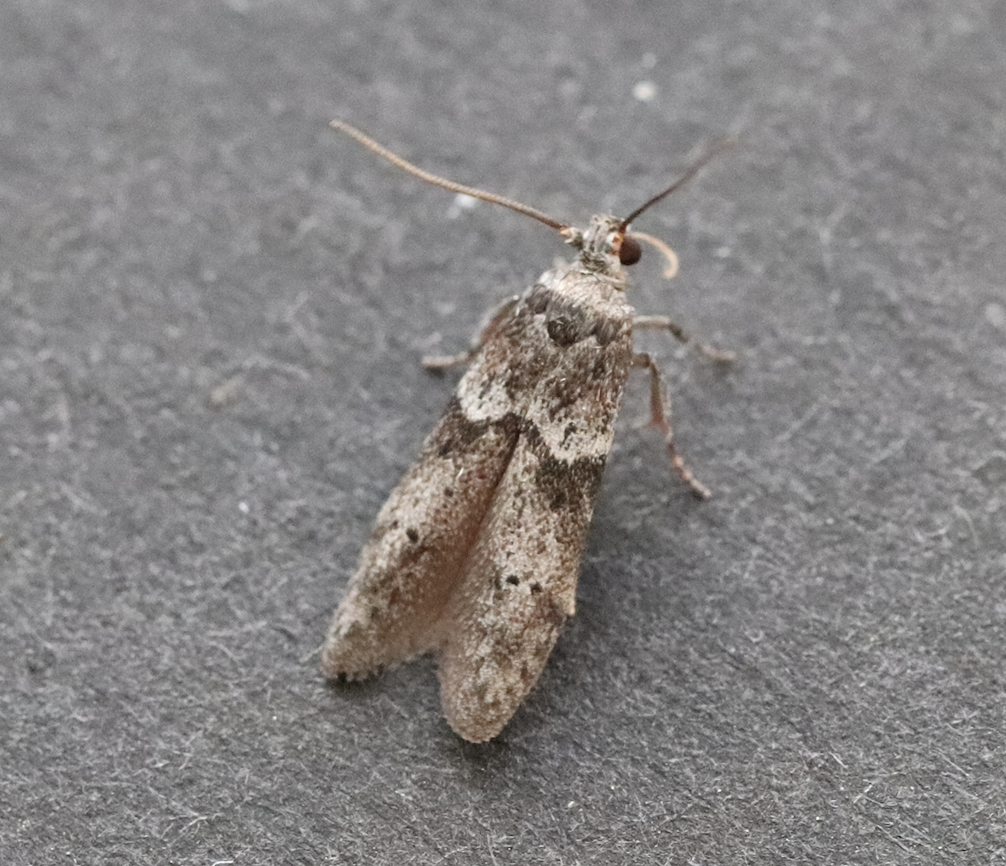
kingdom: Animalia
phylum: Arthropoda
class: Insecta
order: Lepidoptera
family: Blastobasidae
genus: Blastobasis
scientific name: Blastobasis glandulella
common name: Acorn moth
